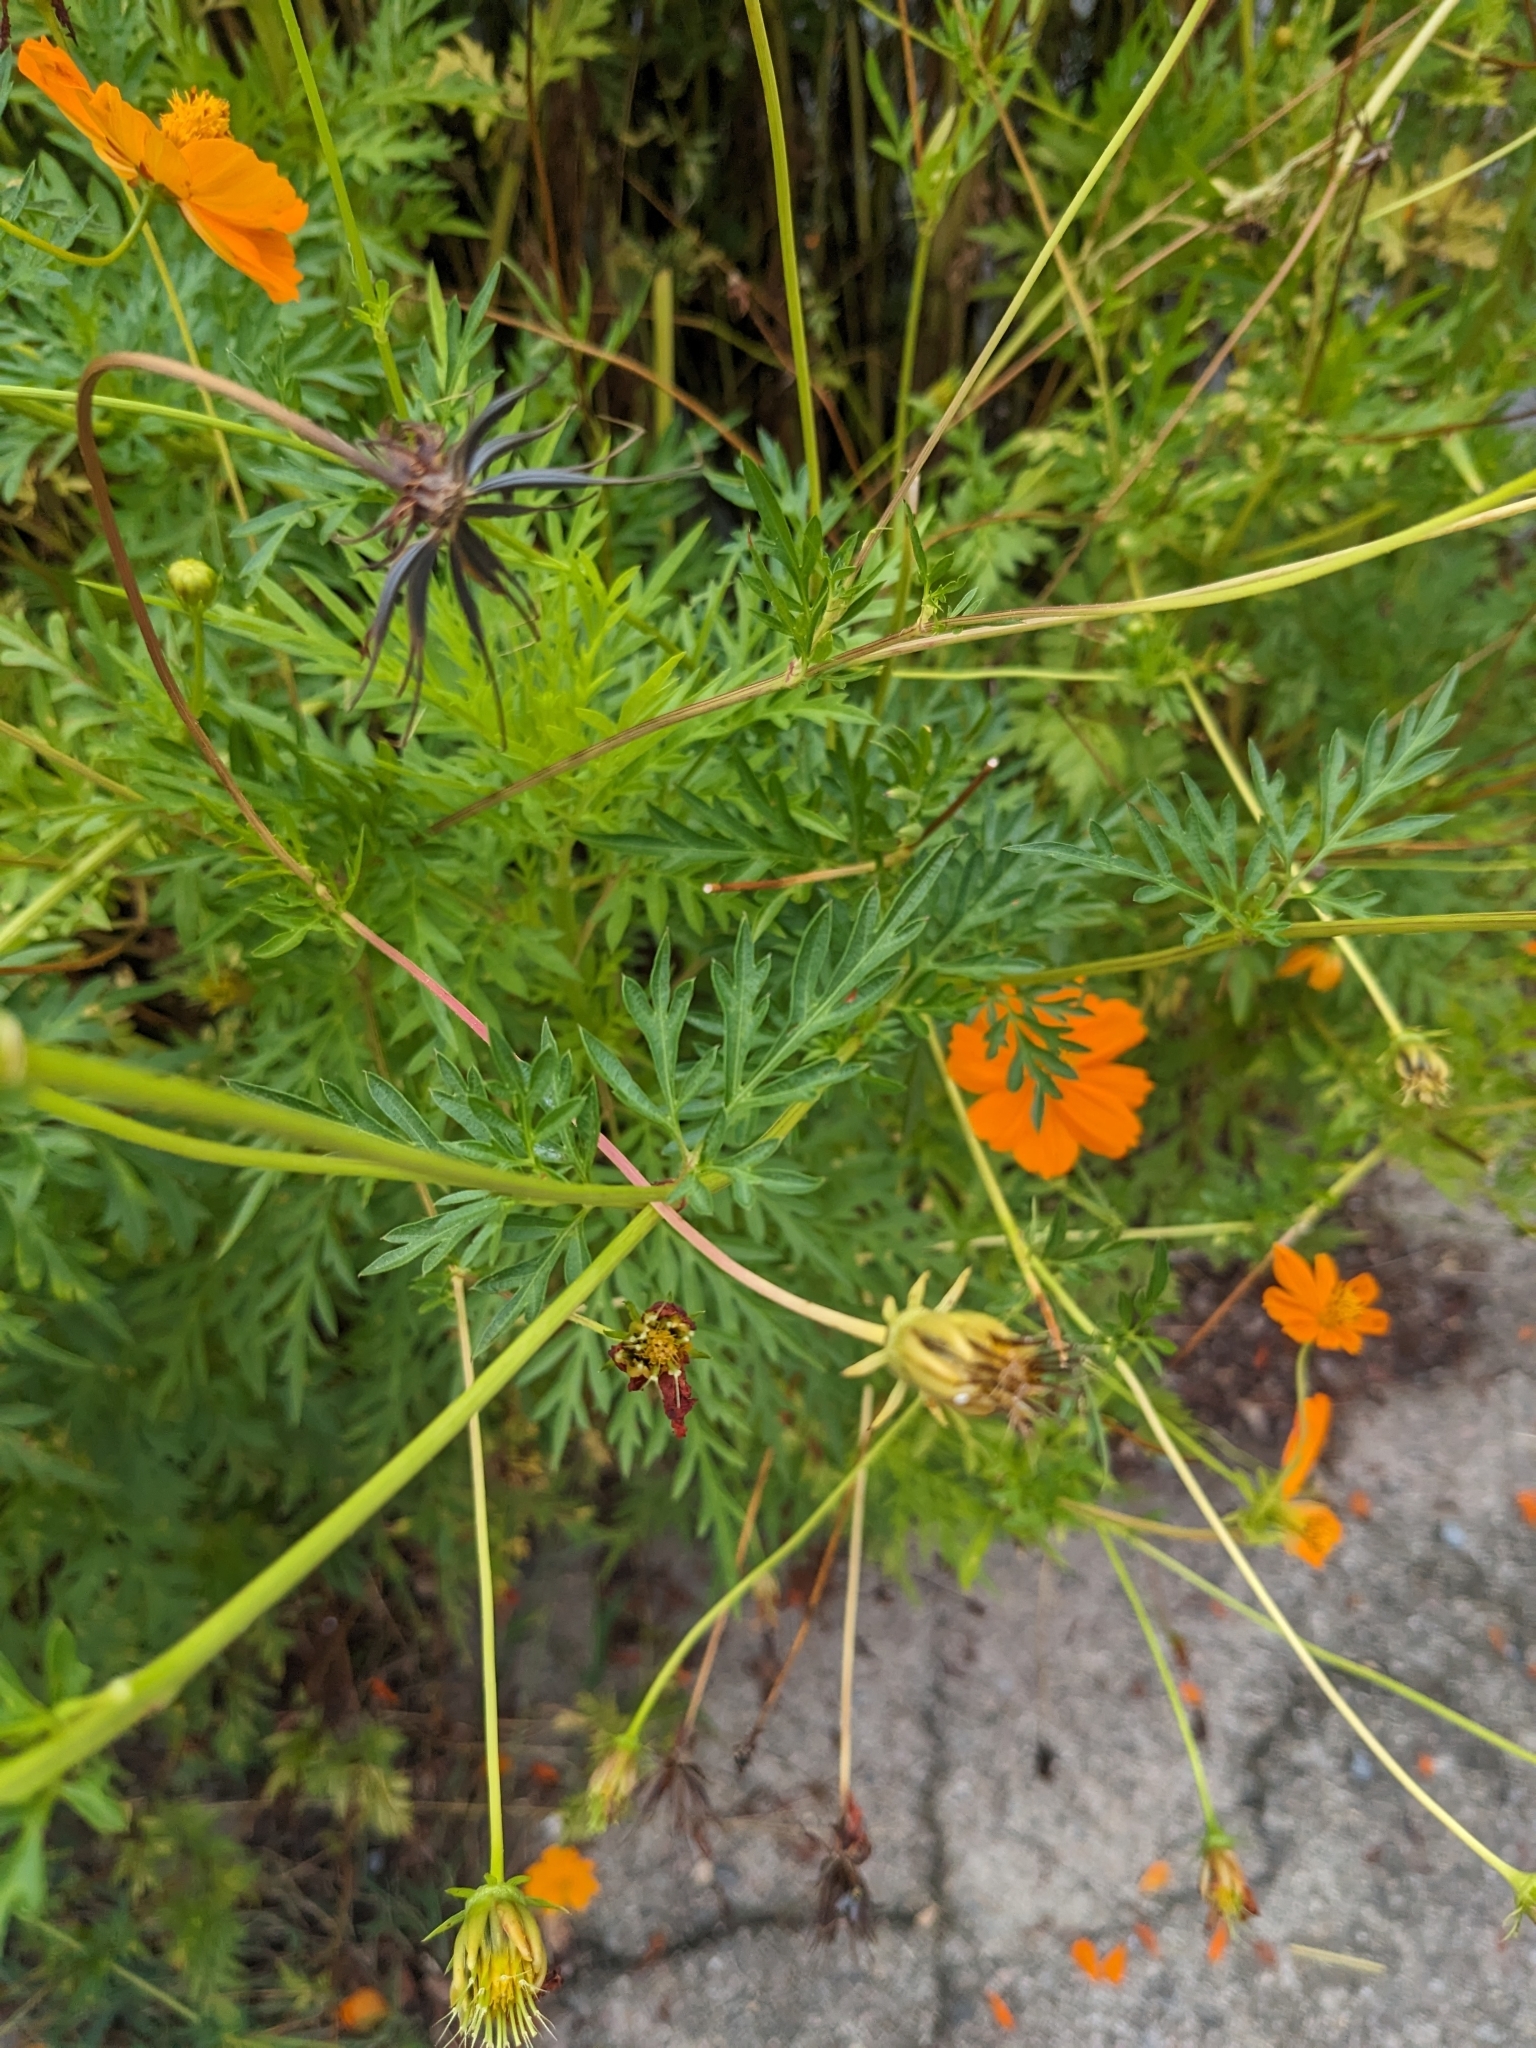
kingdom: Plantae
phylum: Tracheophyta
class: Magnoliopsida
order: Asterales
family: Asteraceae
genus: Cosmos
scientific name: Cosmos sulphureus
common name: Sulphur cosmos
